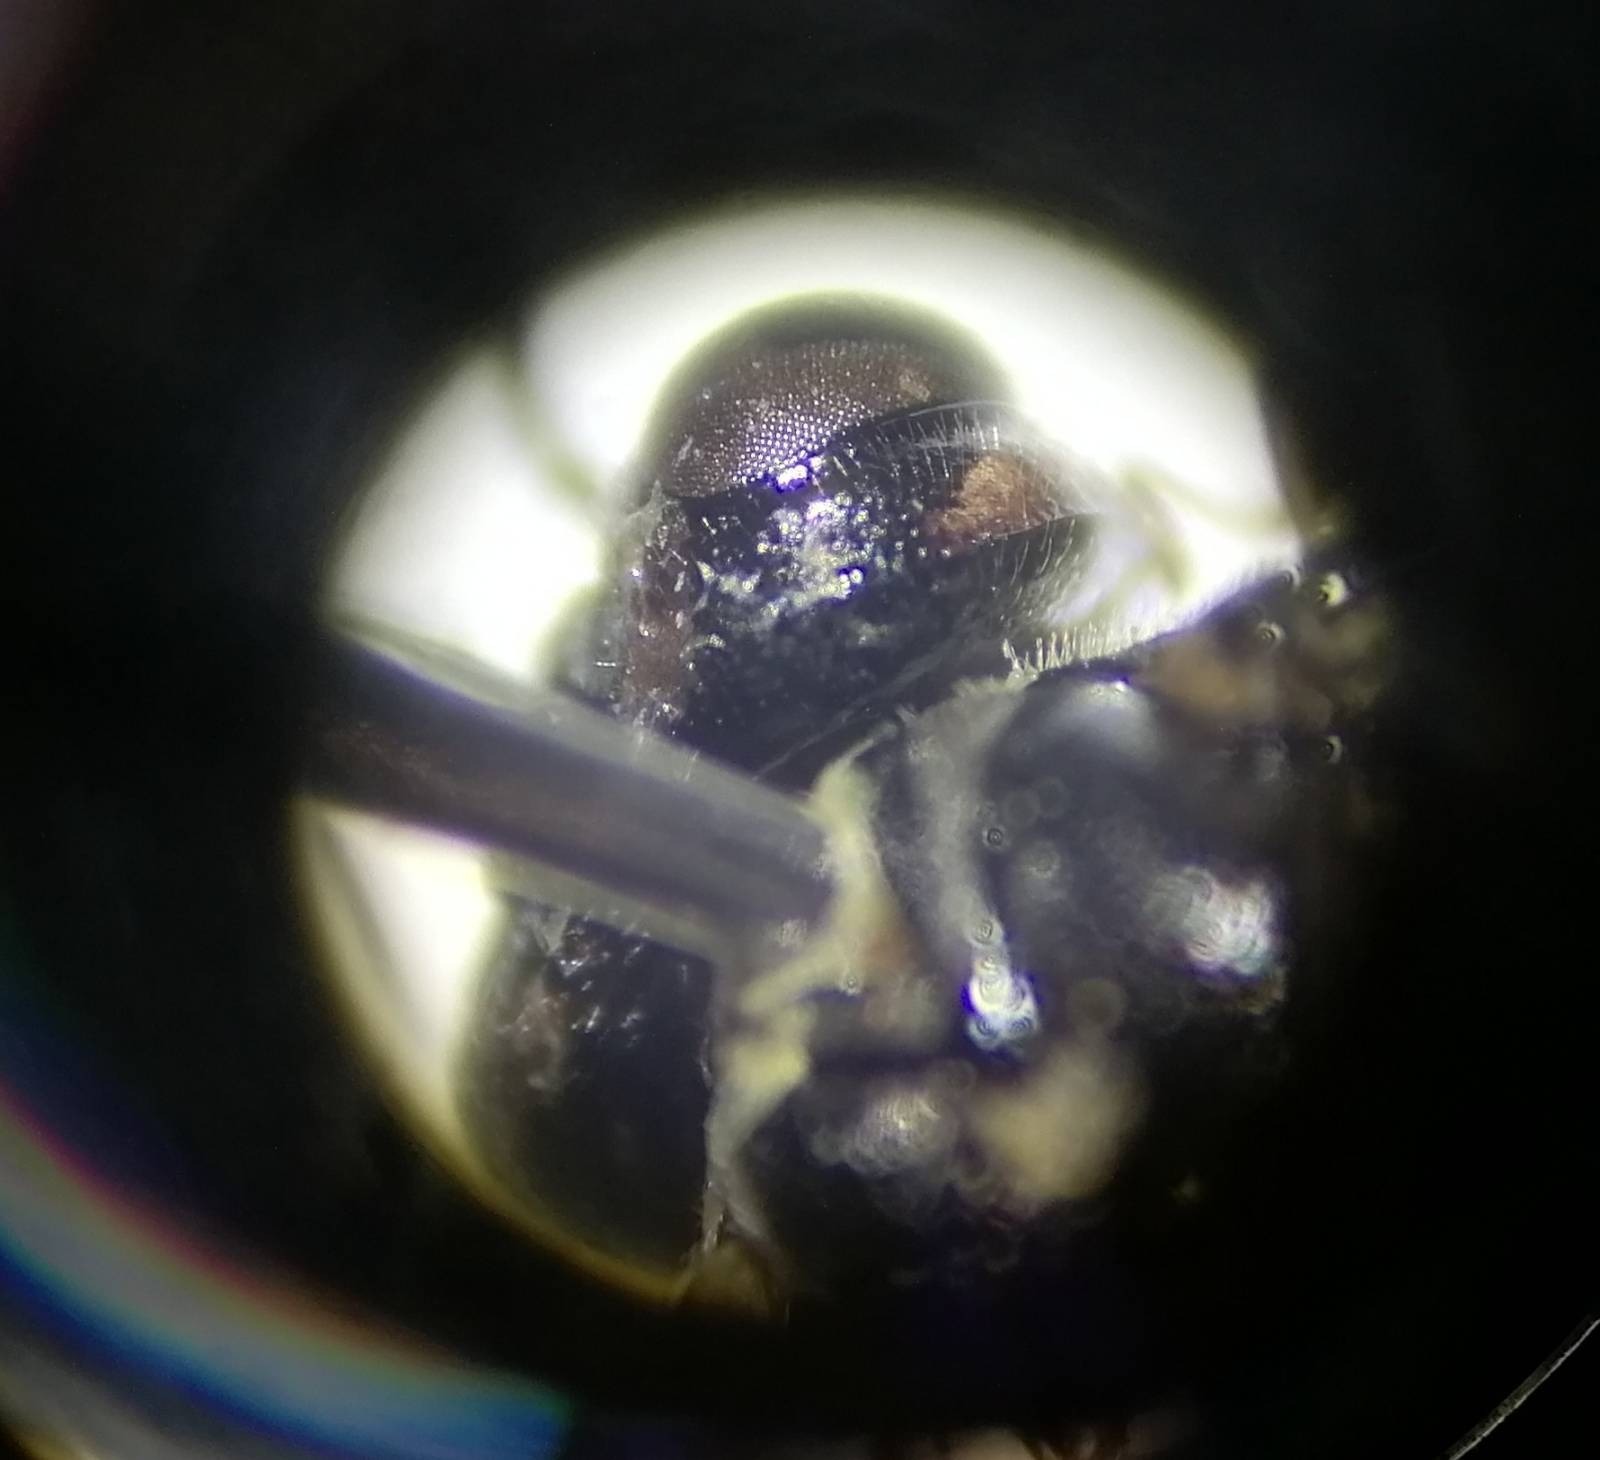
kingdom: Animalia
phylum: Arthropoda
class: Insecta
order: Hymenoptera
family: Tenthredinidae
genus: Pachyprotasis
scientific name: Pachyprotasis rapae
